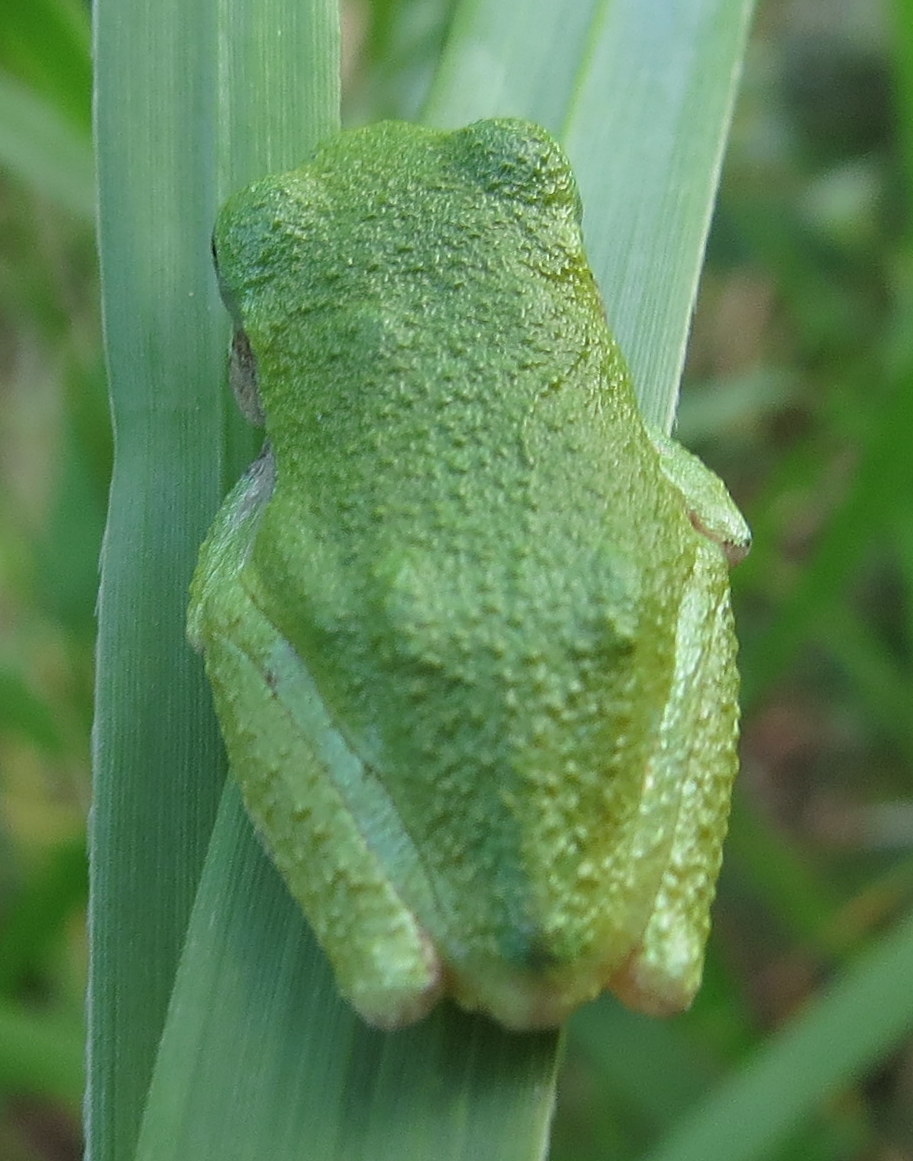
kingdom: Animalia
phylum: Chordata
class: Amphibia
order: Anura
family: Hylidae
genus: Dryophytes
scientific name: Dryophytes versicolor
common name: Gray treefrog
